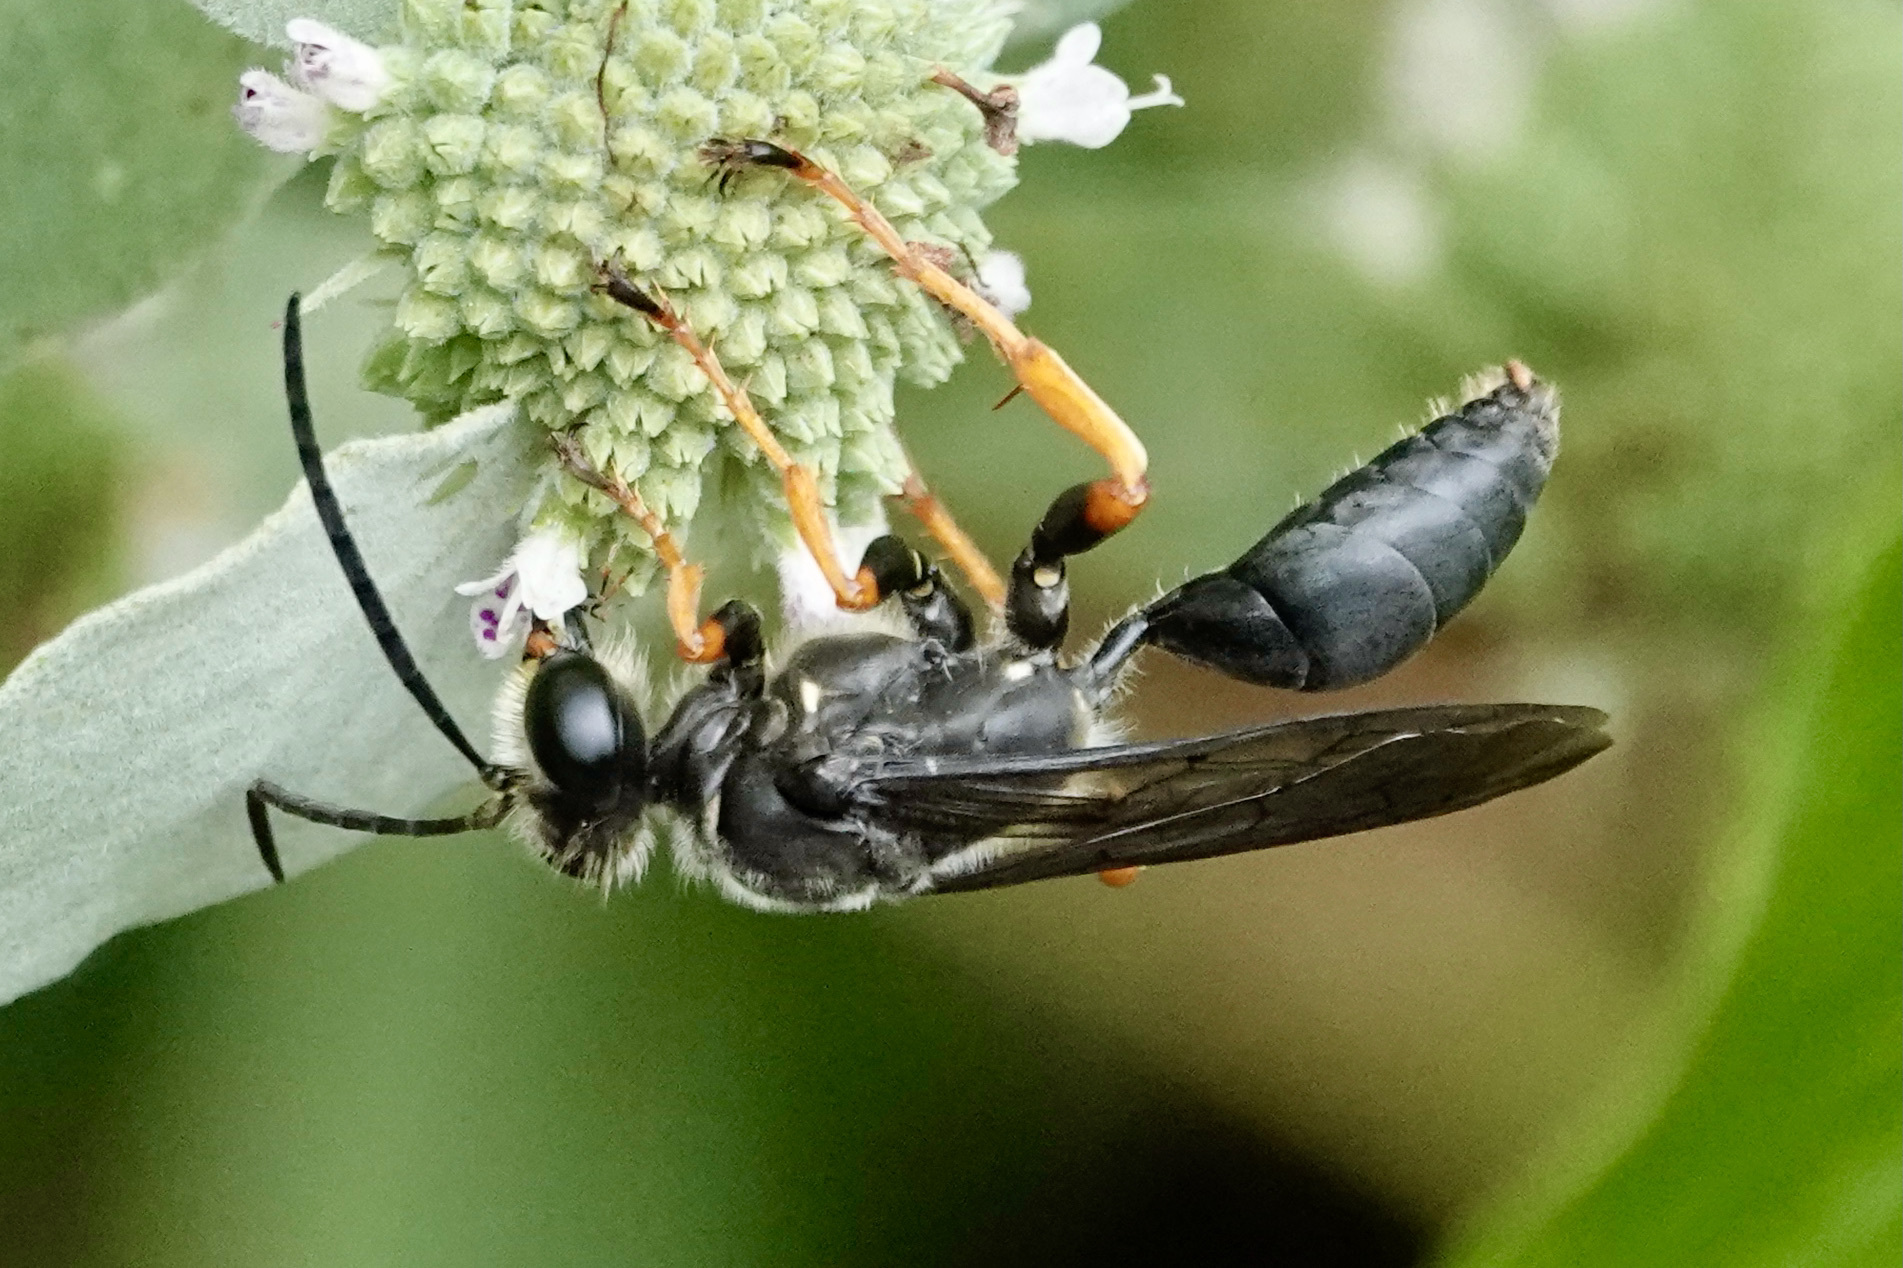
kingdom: Animalia
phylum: Arthropoda
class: Insecta
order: Hymenoptera
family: Sphecidae
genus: Sphex
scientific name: Sphex nudus
